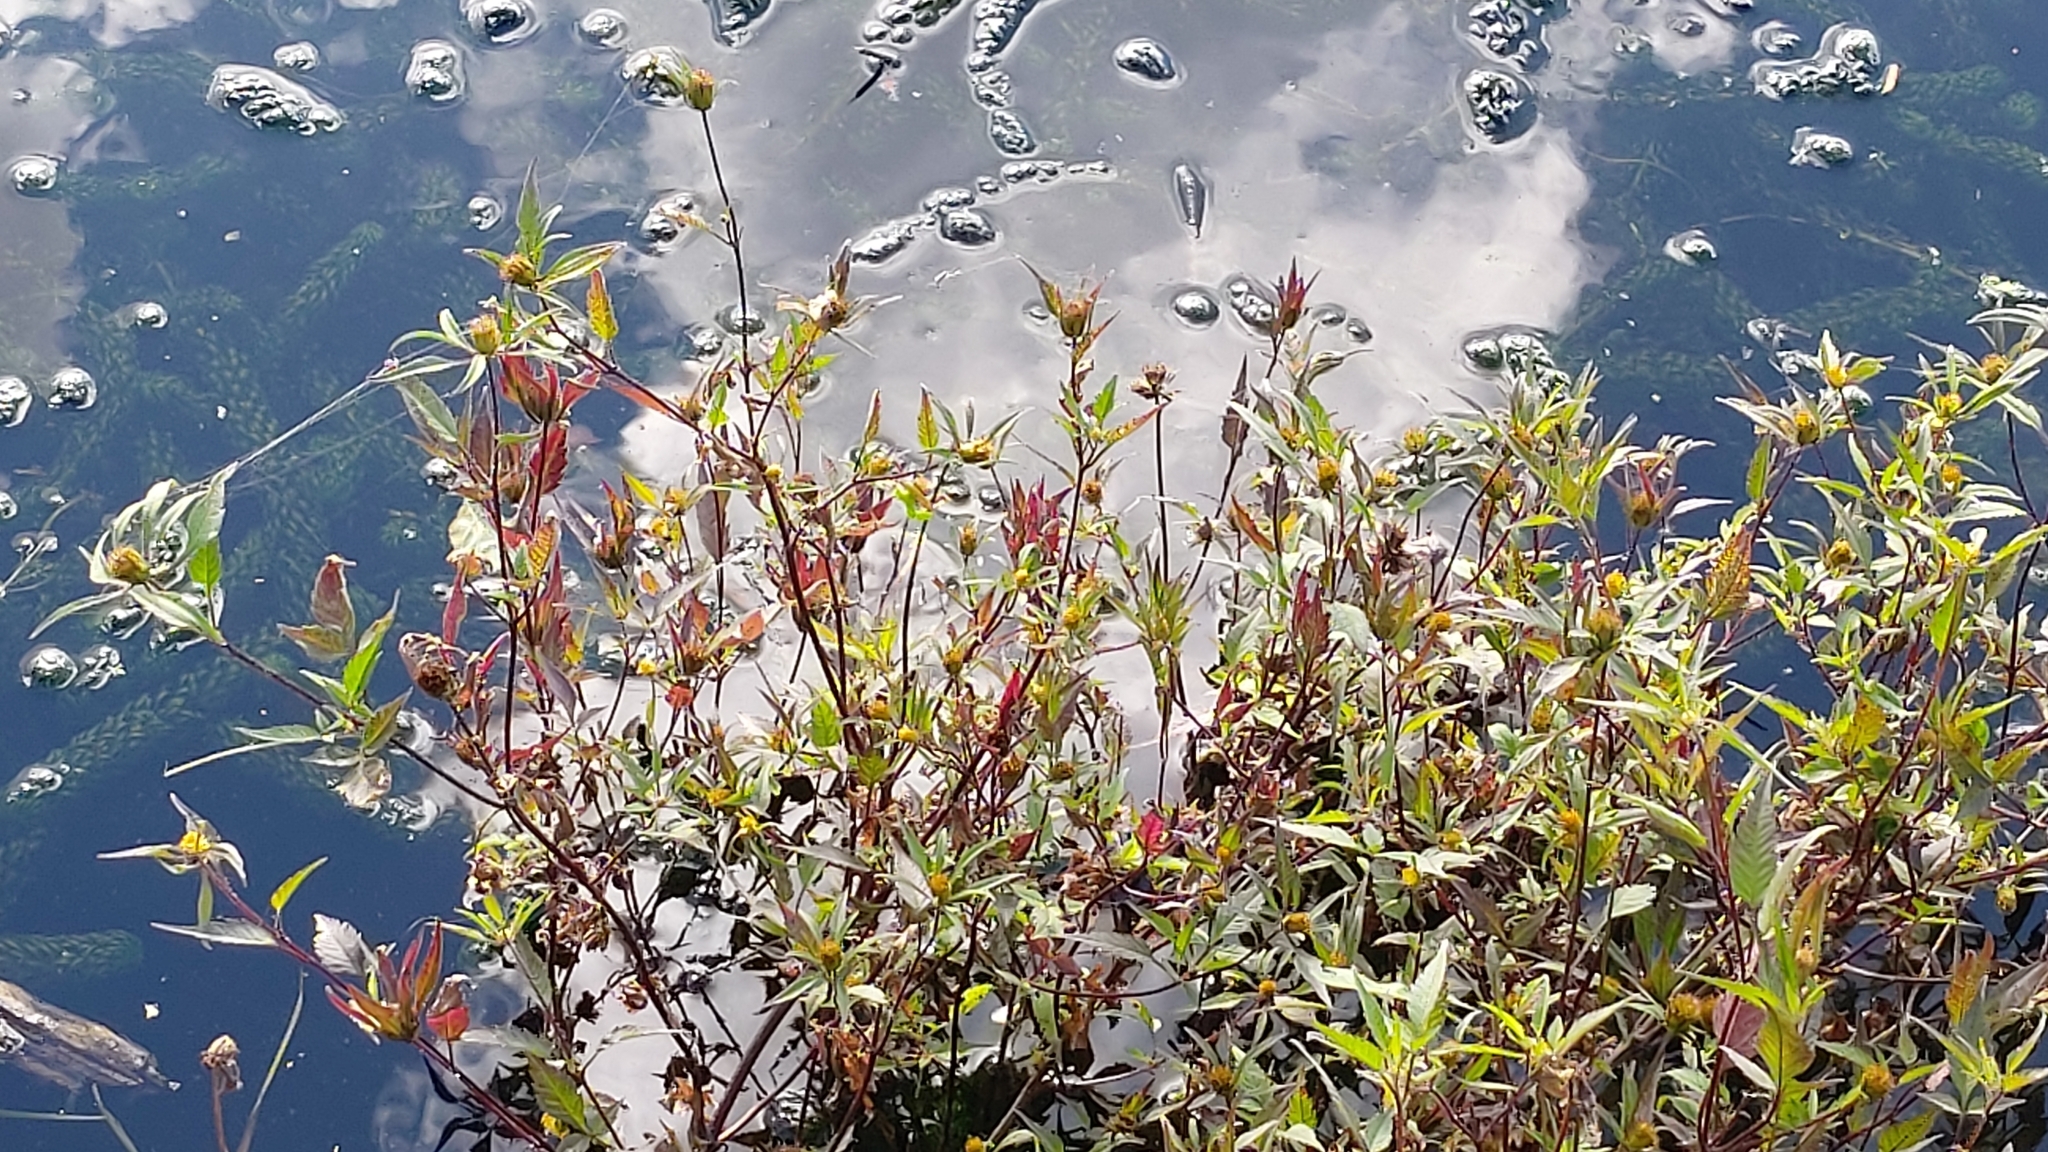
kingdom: Plantae
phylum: Tracheophyta
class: Magnoliopsida
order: Asterales
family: Asteraceae
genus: Bidens
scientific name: Bidens frondosa
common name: Beggarticks
